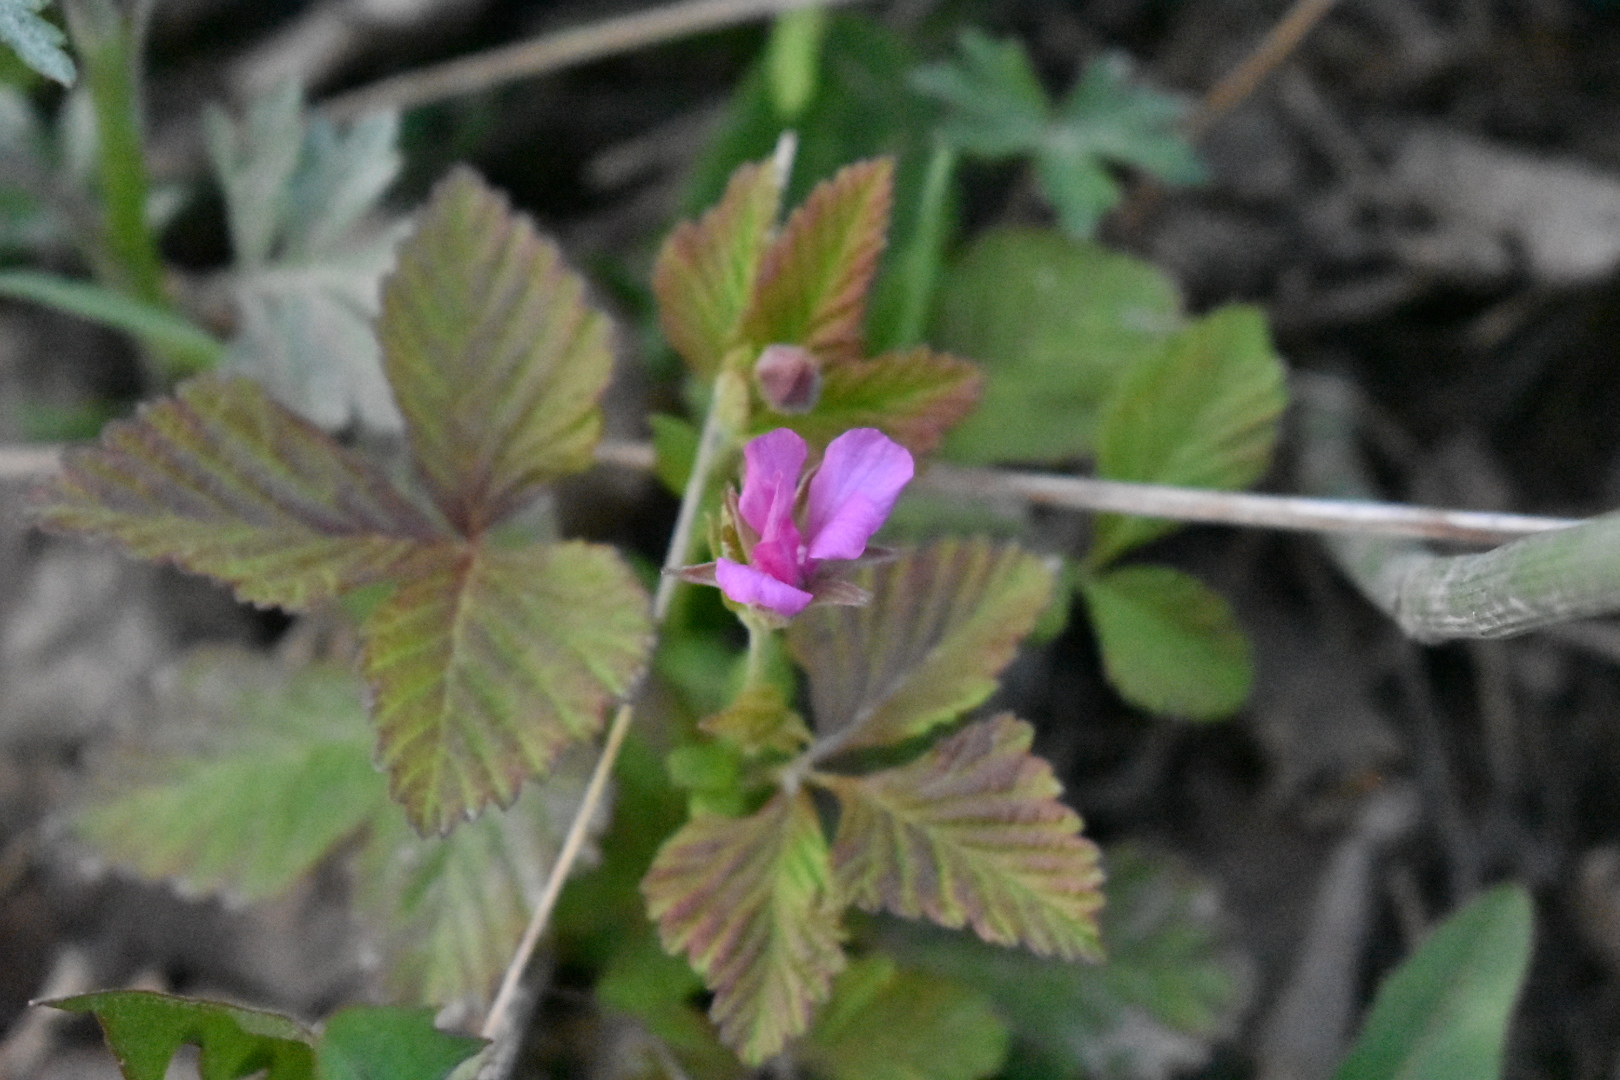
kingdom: Plantae
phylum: Tracheophyta
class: Magnoliopsida
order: Rosales
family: Rosaceae
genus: Rubus
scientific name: Rubus arcticus
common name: Arctic bramble
